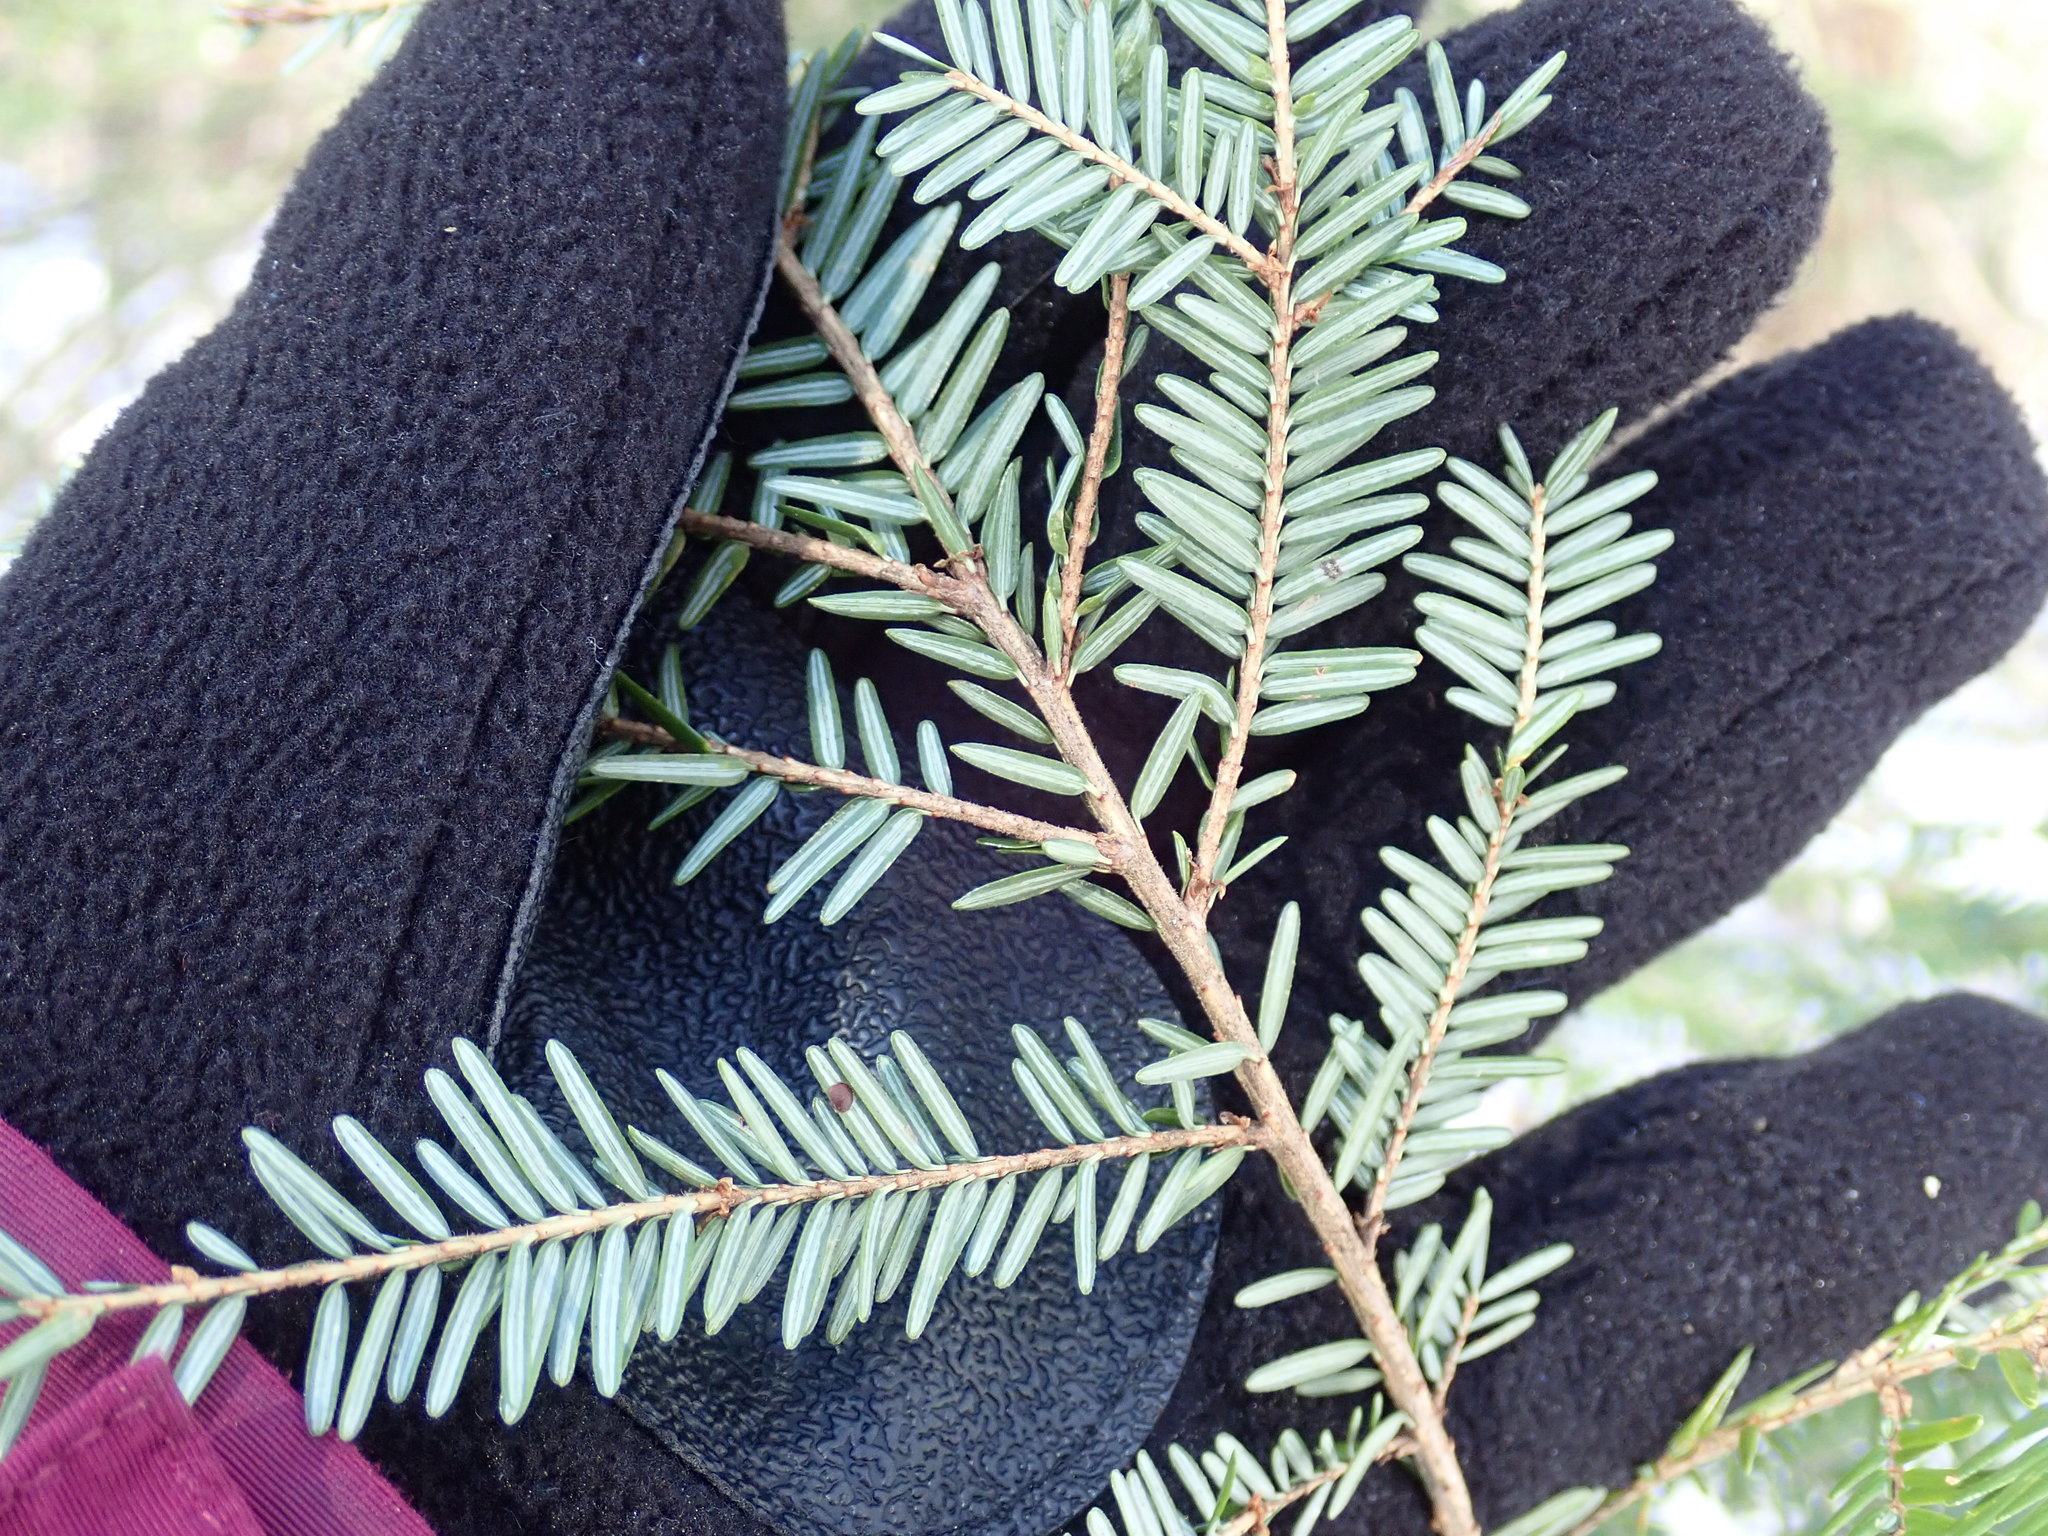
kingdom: Plantae
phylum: Tracheophyta
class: Pinopsida
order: Pinales
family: Pinaceae
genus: Tsuga
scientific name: Tsuga canadensis
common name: Eastern hemlock
